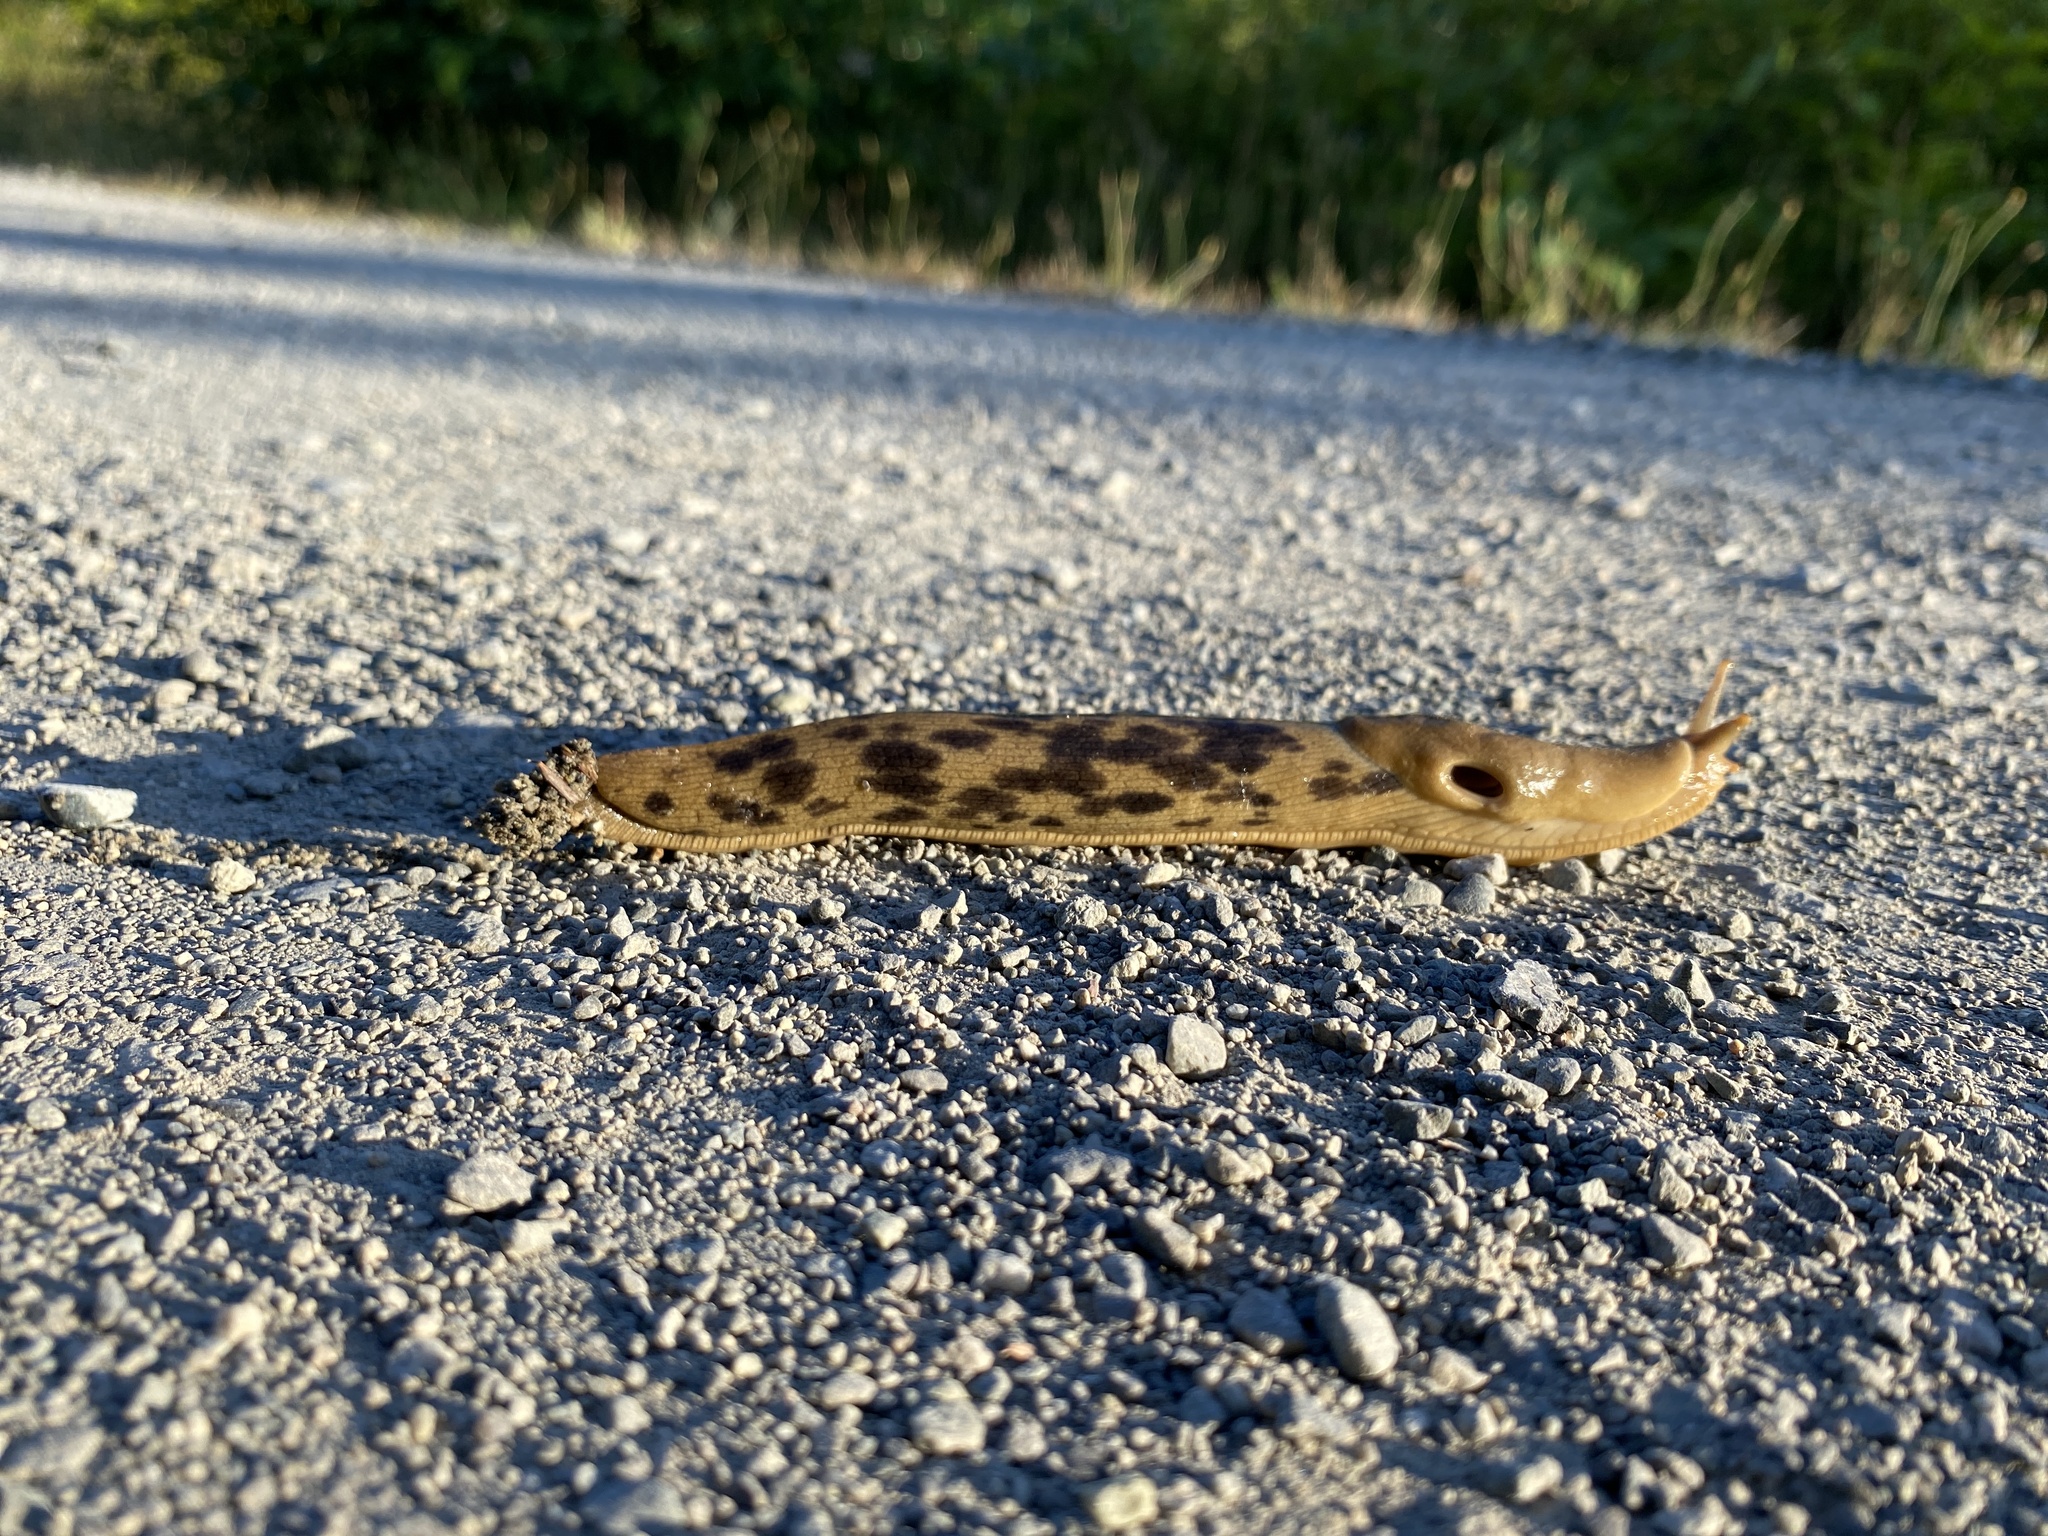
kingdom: Animalia
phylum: Mollusca
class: Gastropoda
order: Stylommatophora
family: Ariolimacidae
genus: Ariolimax
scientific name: Ariolimax columbianus
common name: Pacific banana slug
